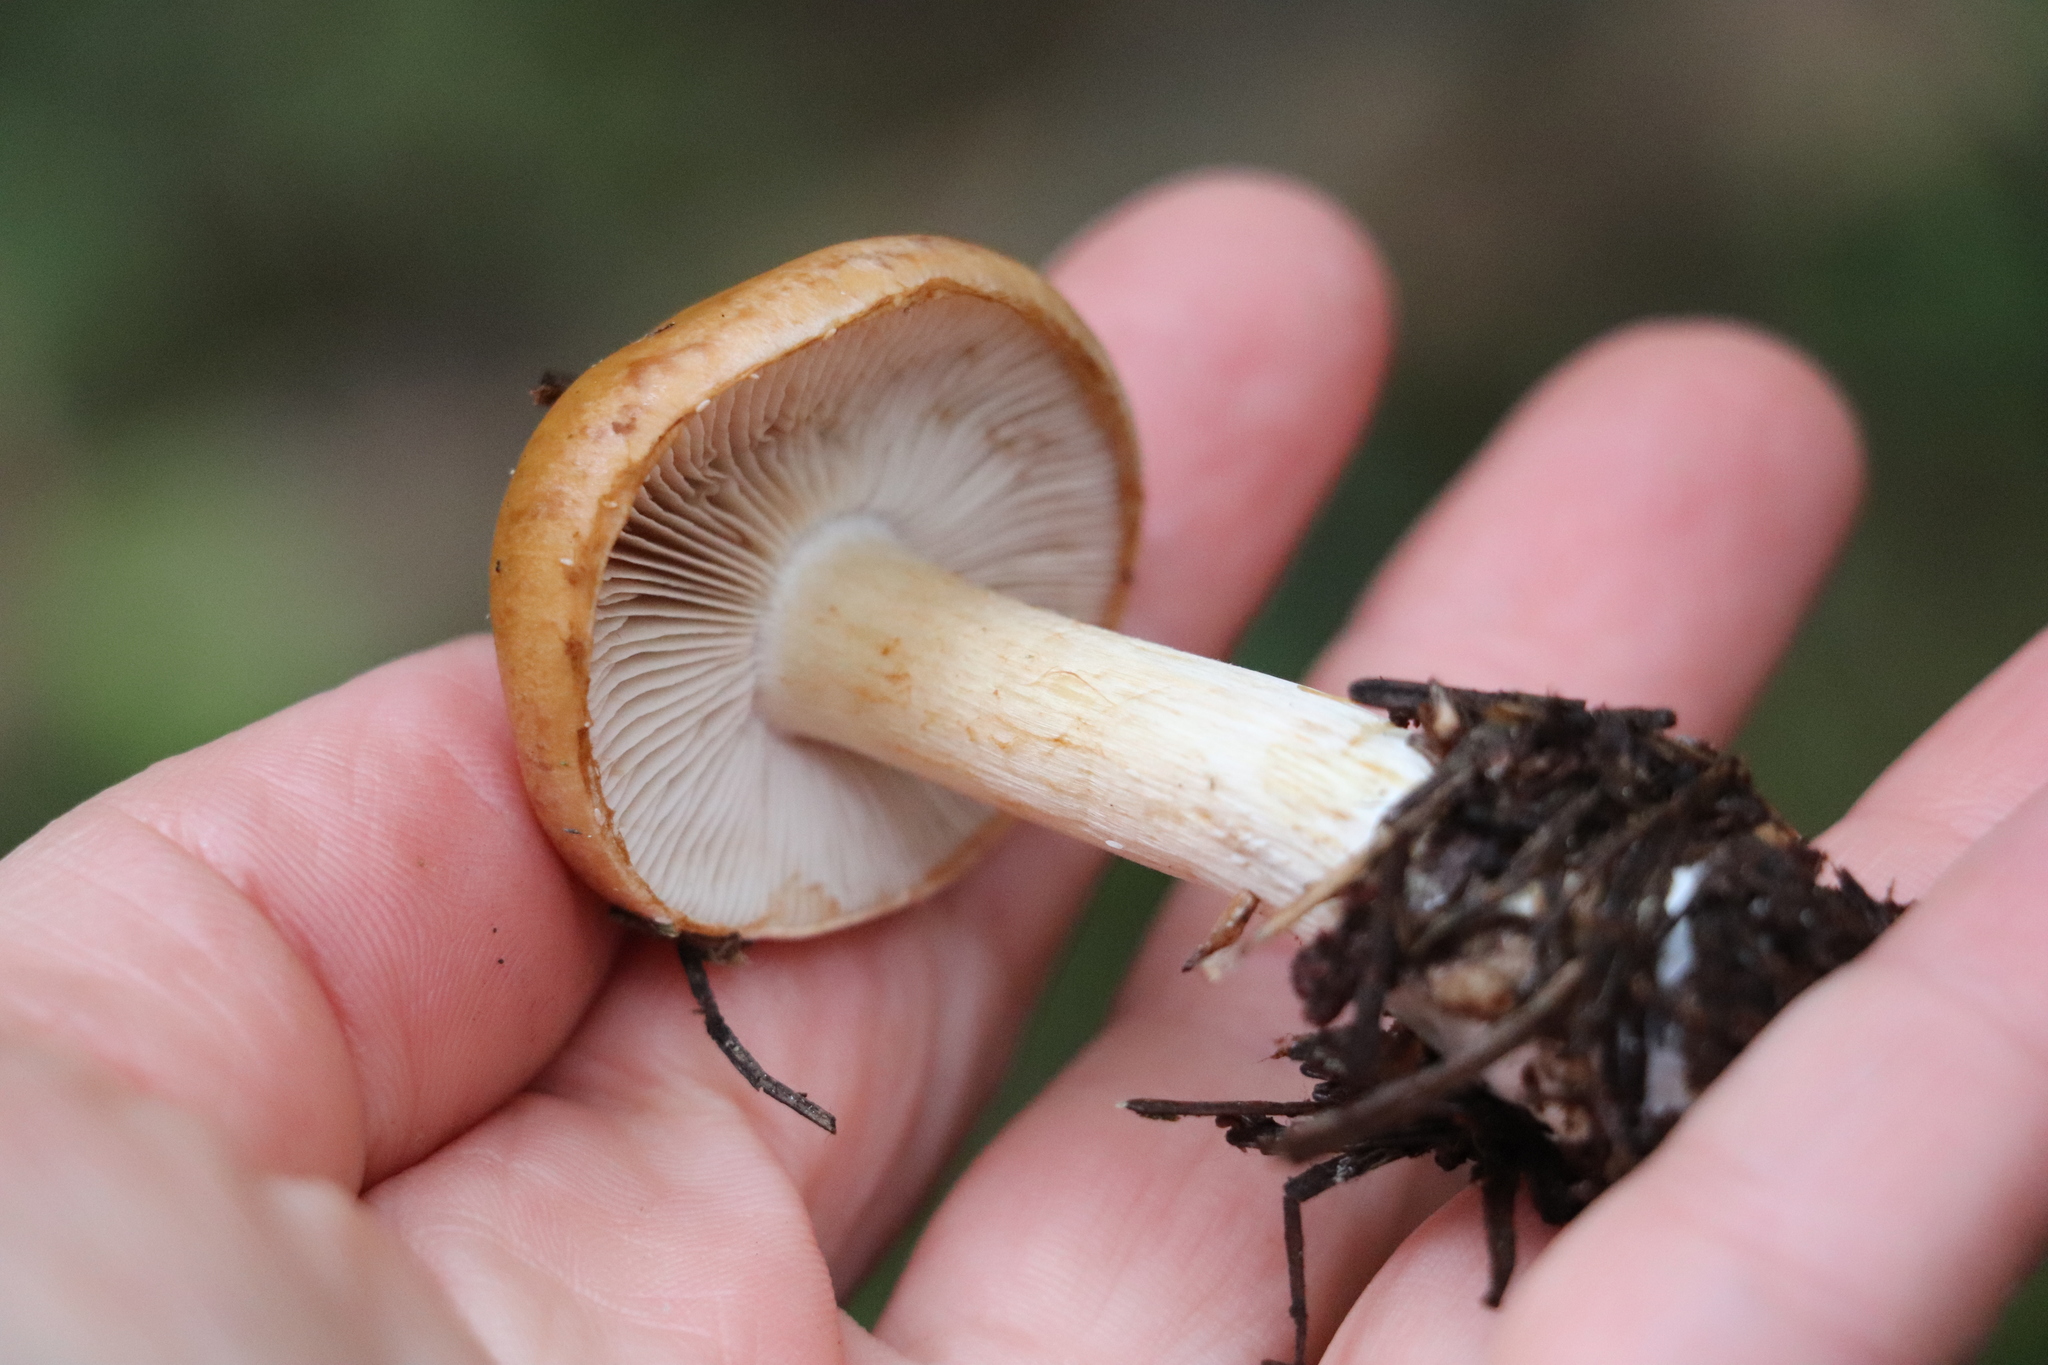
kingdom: Fungi
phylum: Basidiomycota
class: Agaricomycetes
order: Agaricales
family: Cortinariaceae
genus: Cortinarius
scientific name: Cortinarius polymorphus
